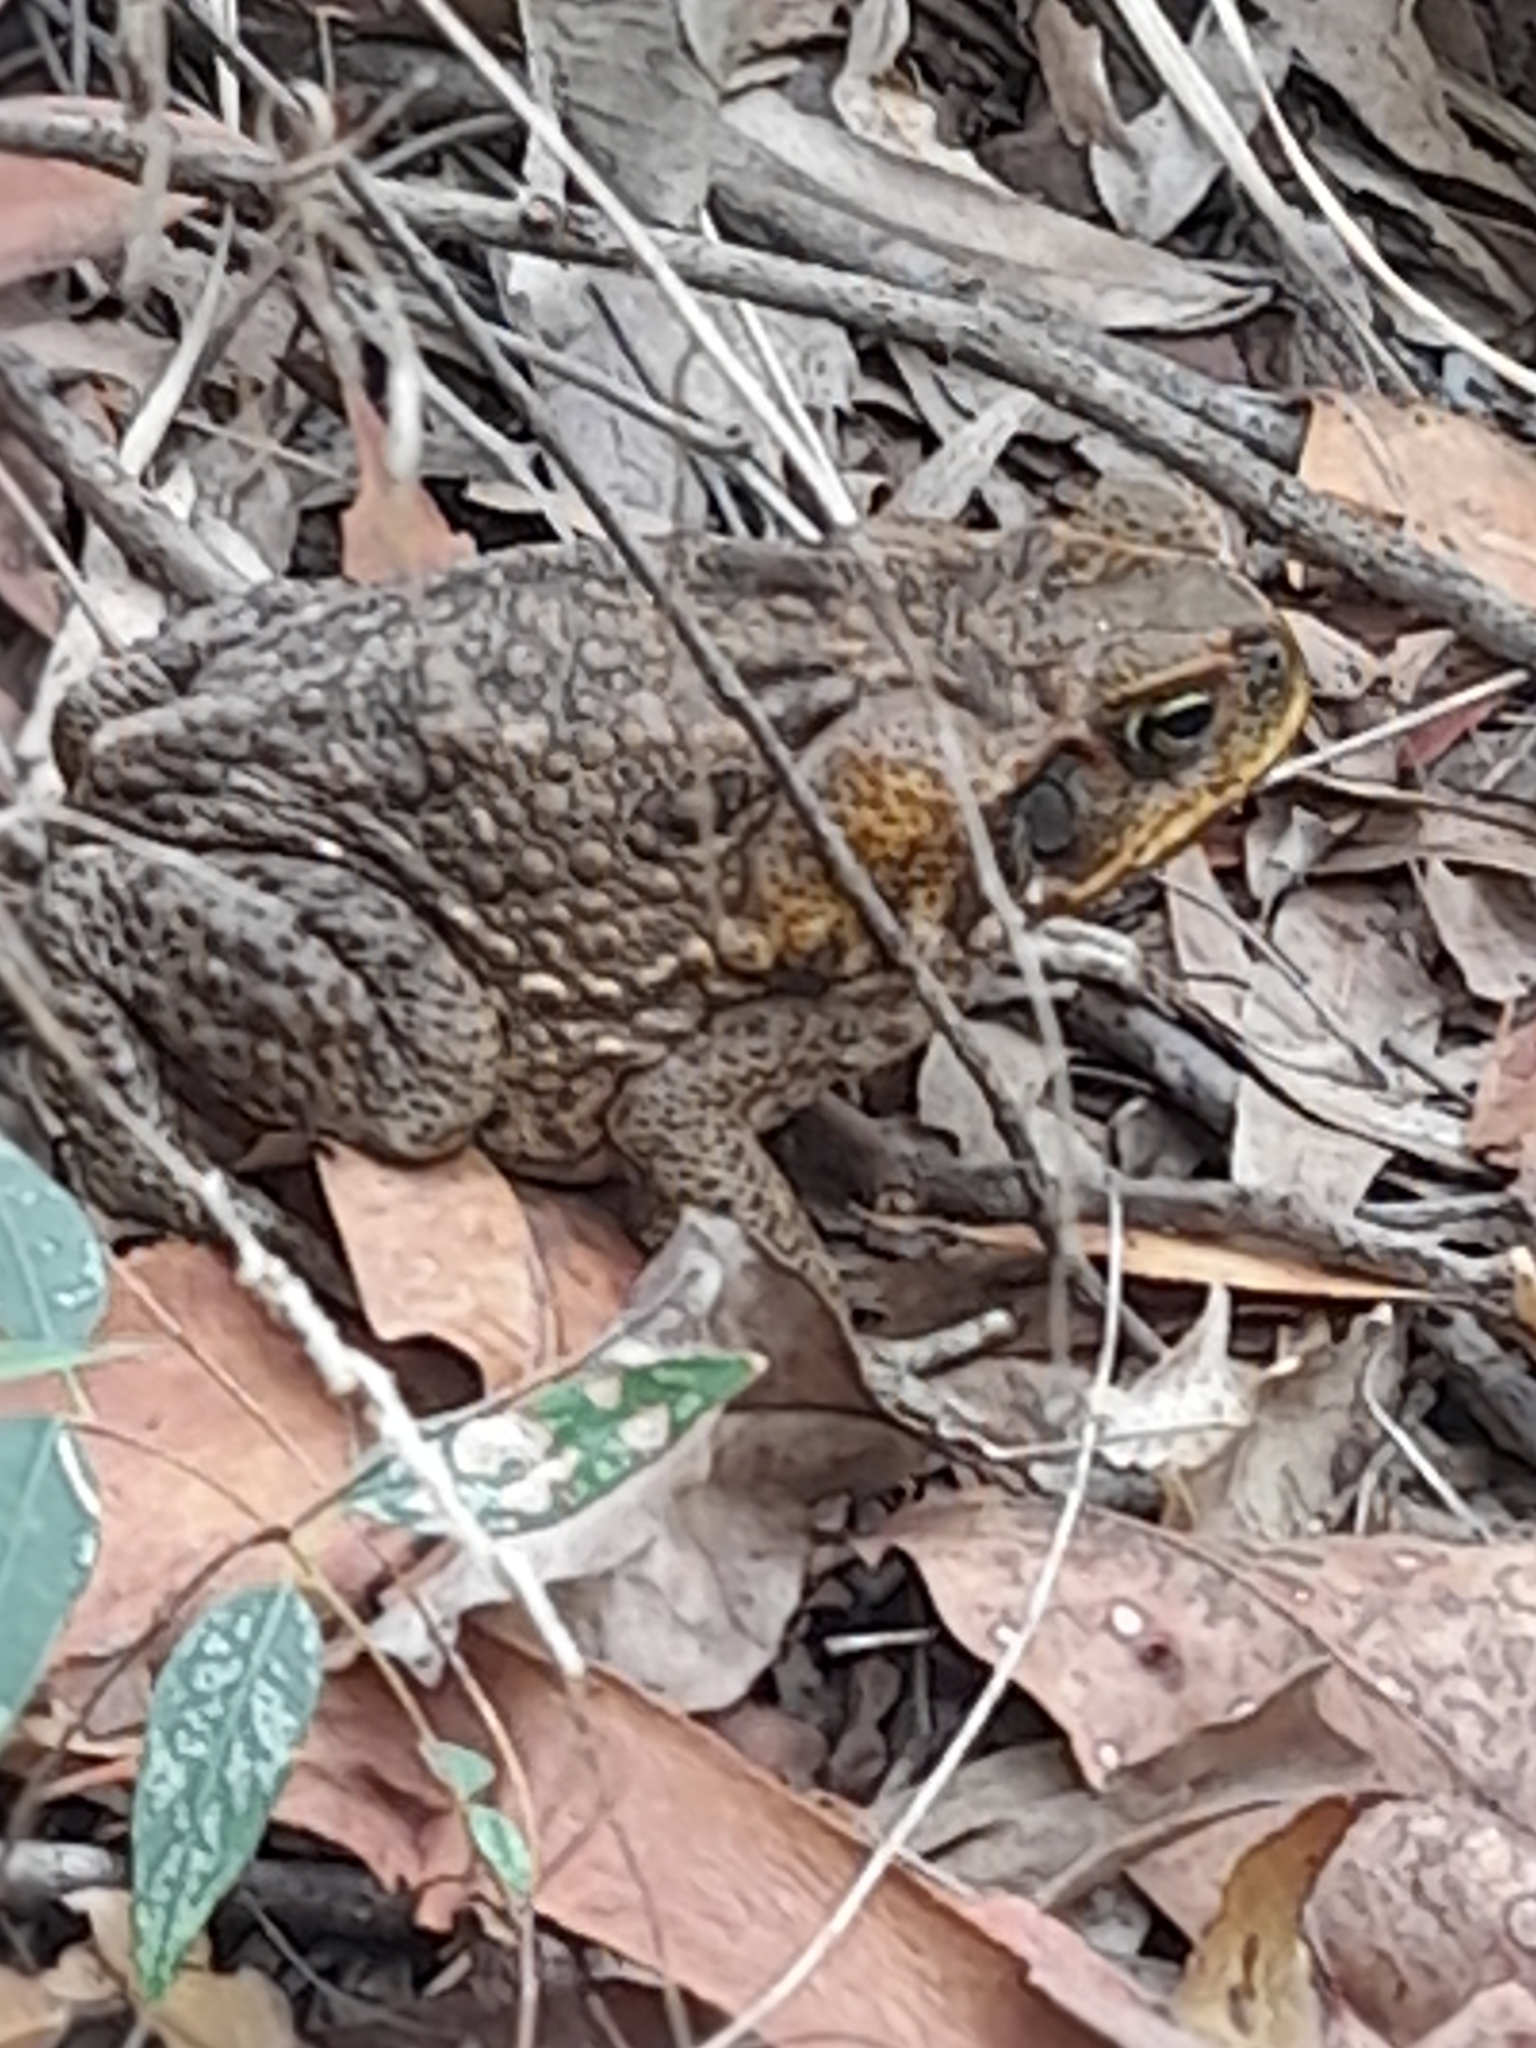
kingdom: Animalia
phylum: Chordata
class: Amphibia
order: Anura
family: Bufonidae
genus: Rhinella
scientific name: Rhinella marina
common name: Cane toad
